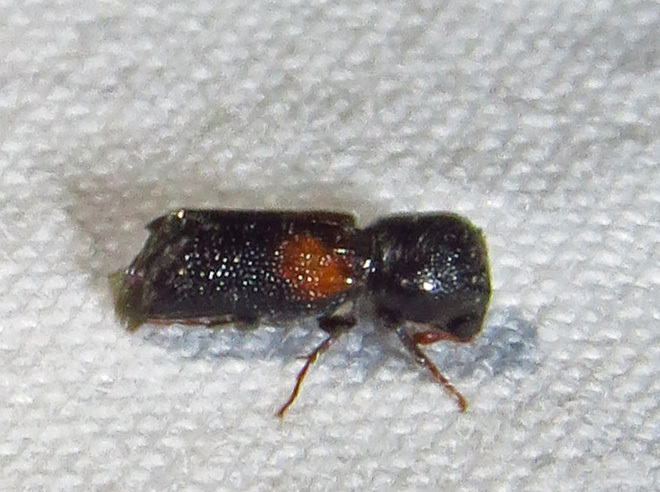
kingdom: Animalia
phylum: Arthropoda
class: Insecta
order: Coleoptera
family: Bostrichidae
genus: Xylobiops
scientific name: Xylobiops basilaris
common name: Red-shouldered bostrichid
